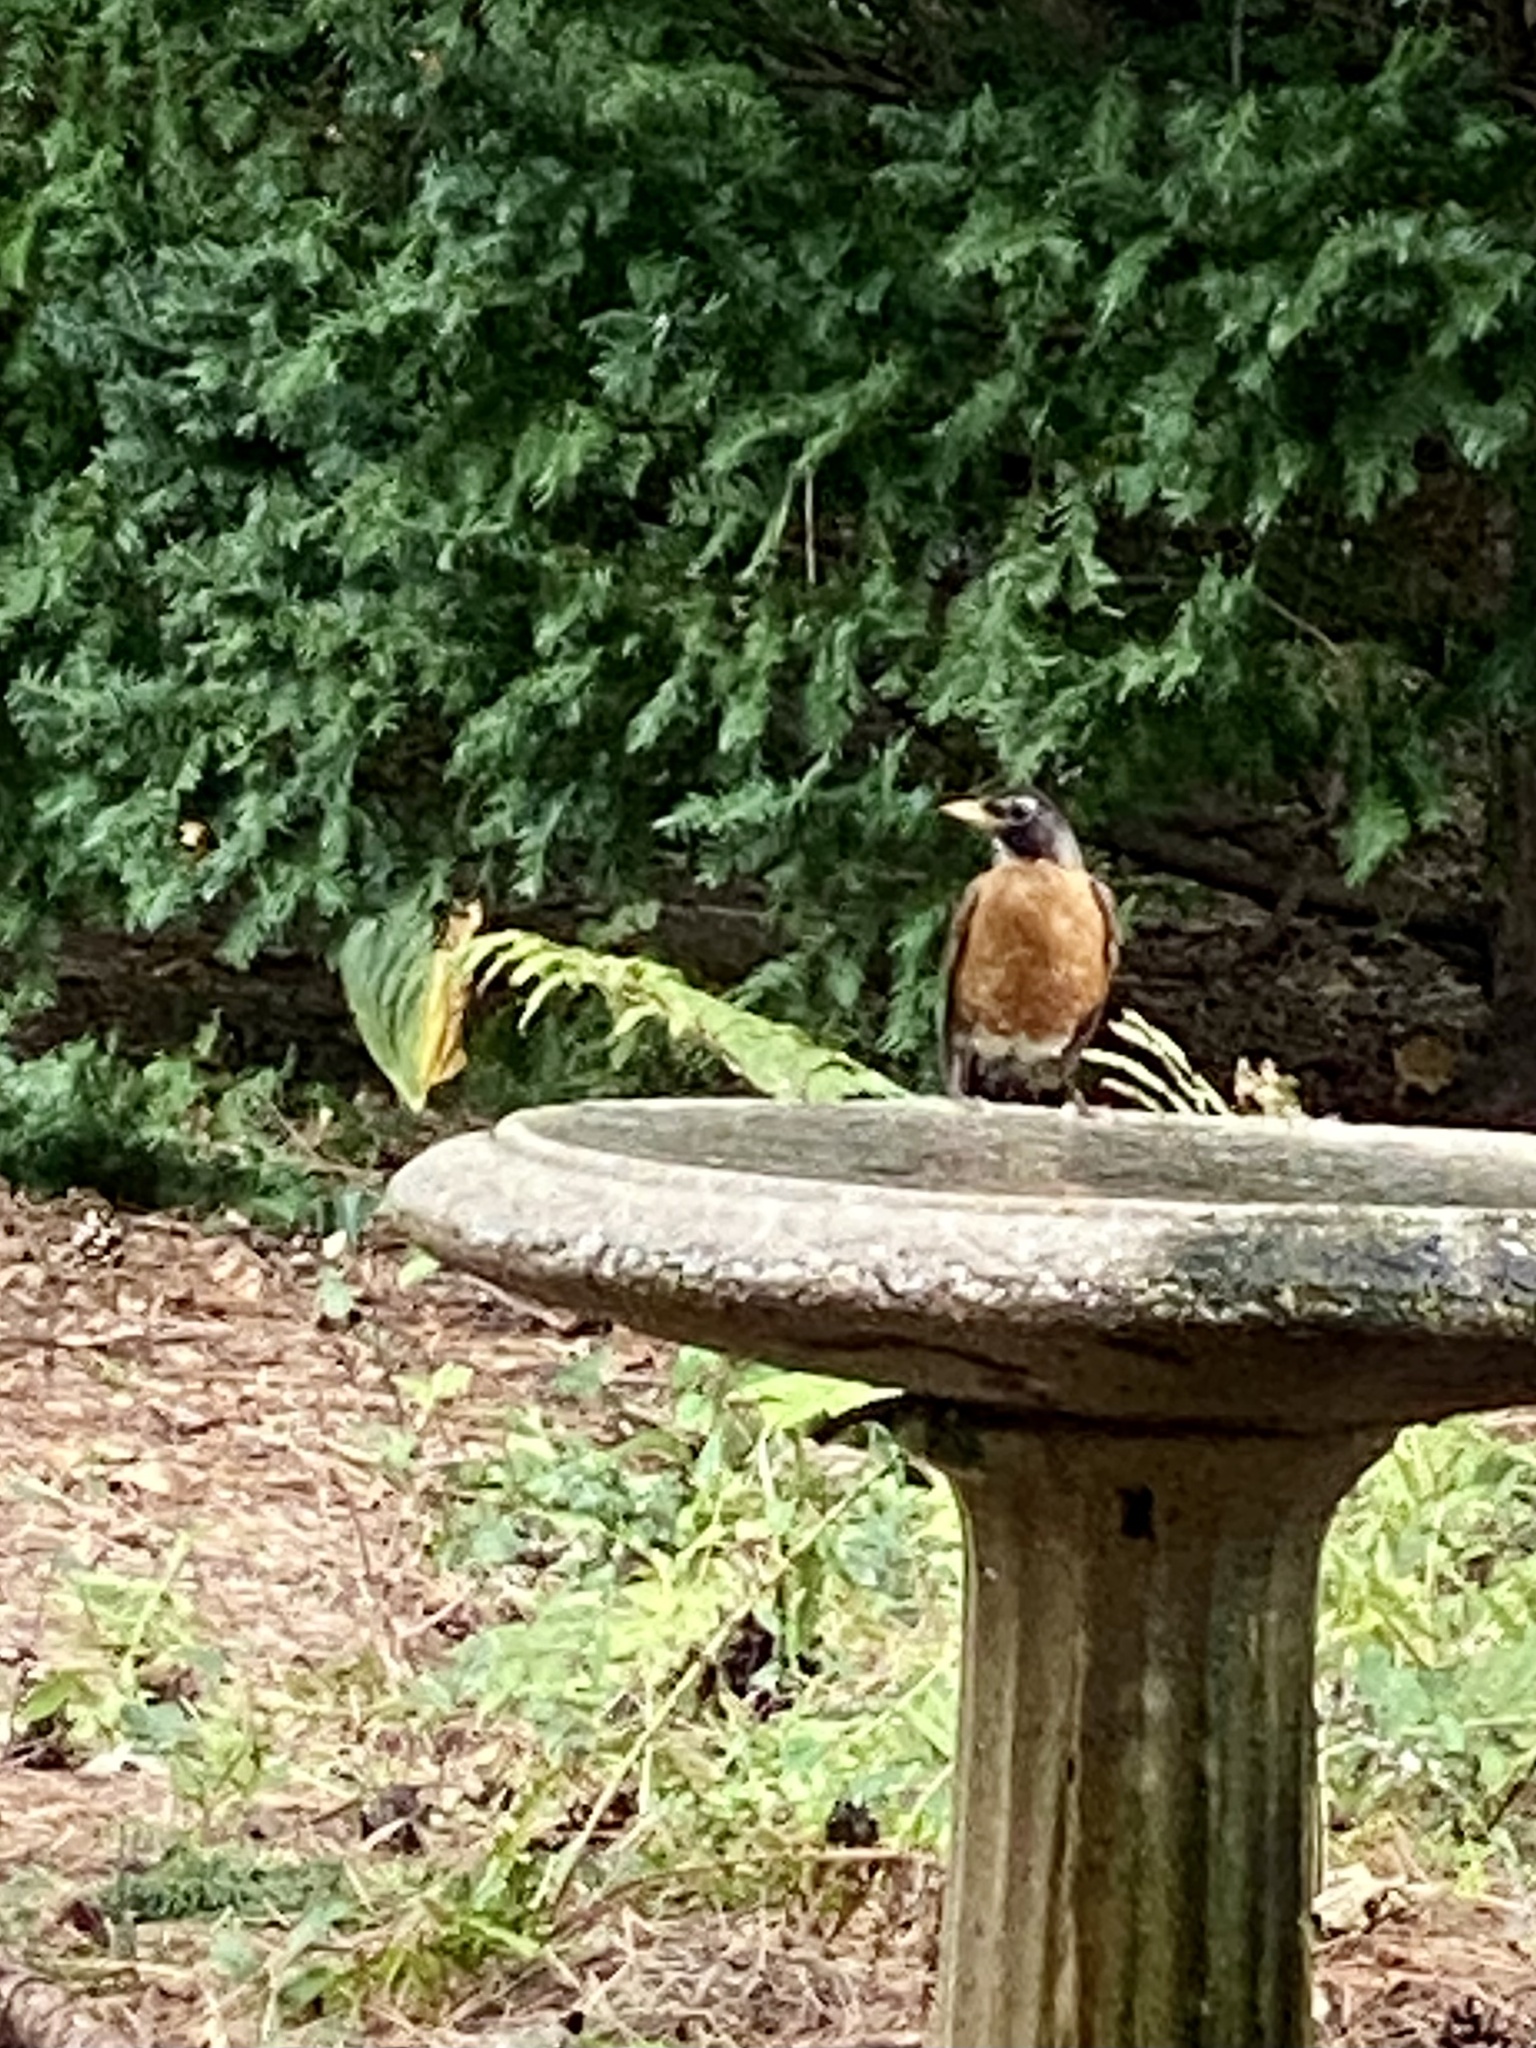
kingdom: Animalia
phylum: Chordata
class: Aves
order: Passeriformes
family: Turdidae
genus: Turdus
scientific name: Turdus migratorius
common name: American robin
